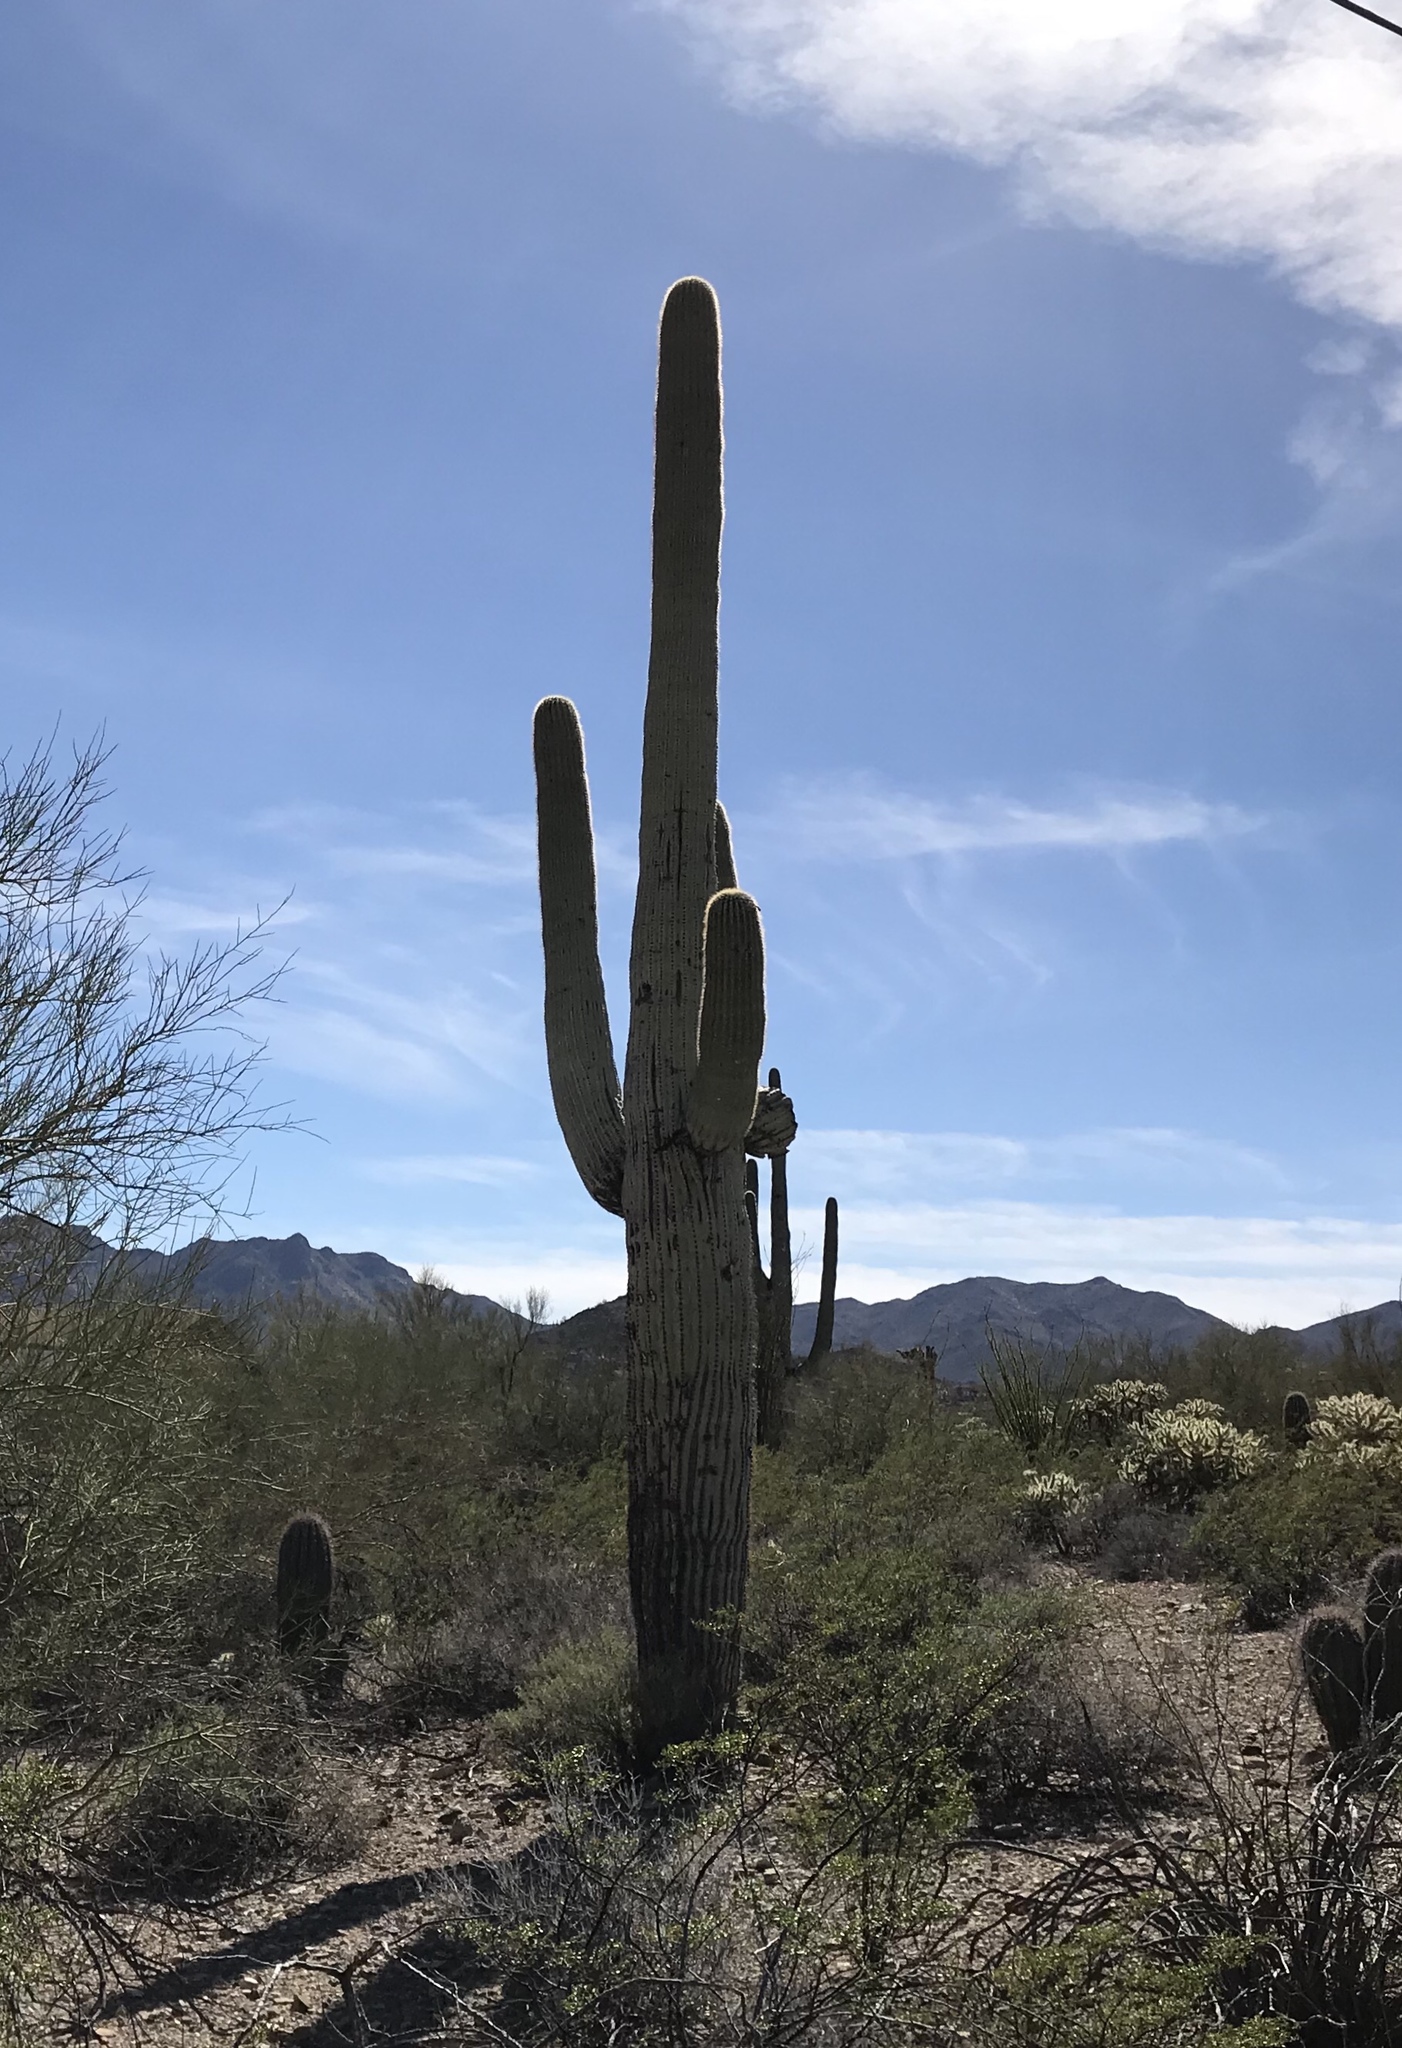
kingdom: Plantae
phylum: Tracheophyta
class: Magnoliopsida
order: Caryophyllales
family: Cactaceae
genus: Carnegiea
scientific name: Carnegiea gigantea
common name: Saguaro
